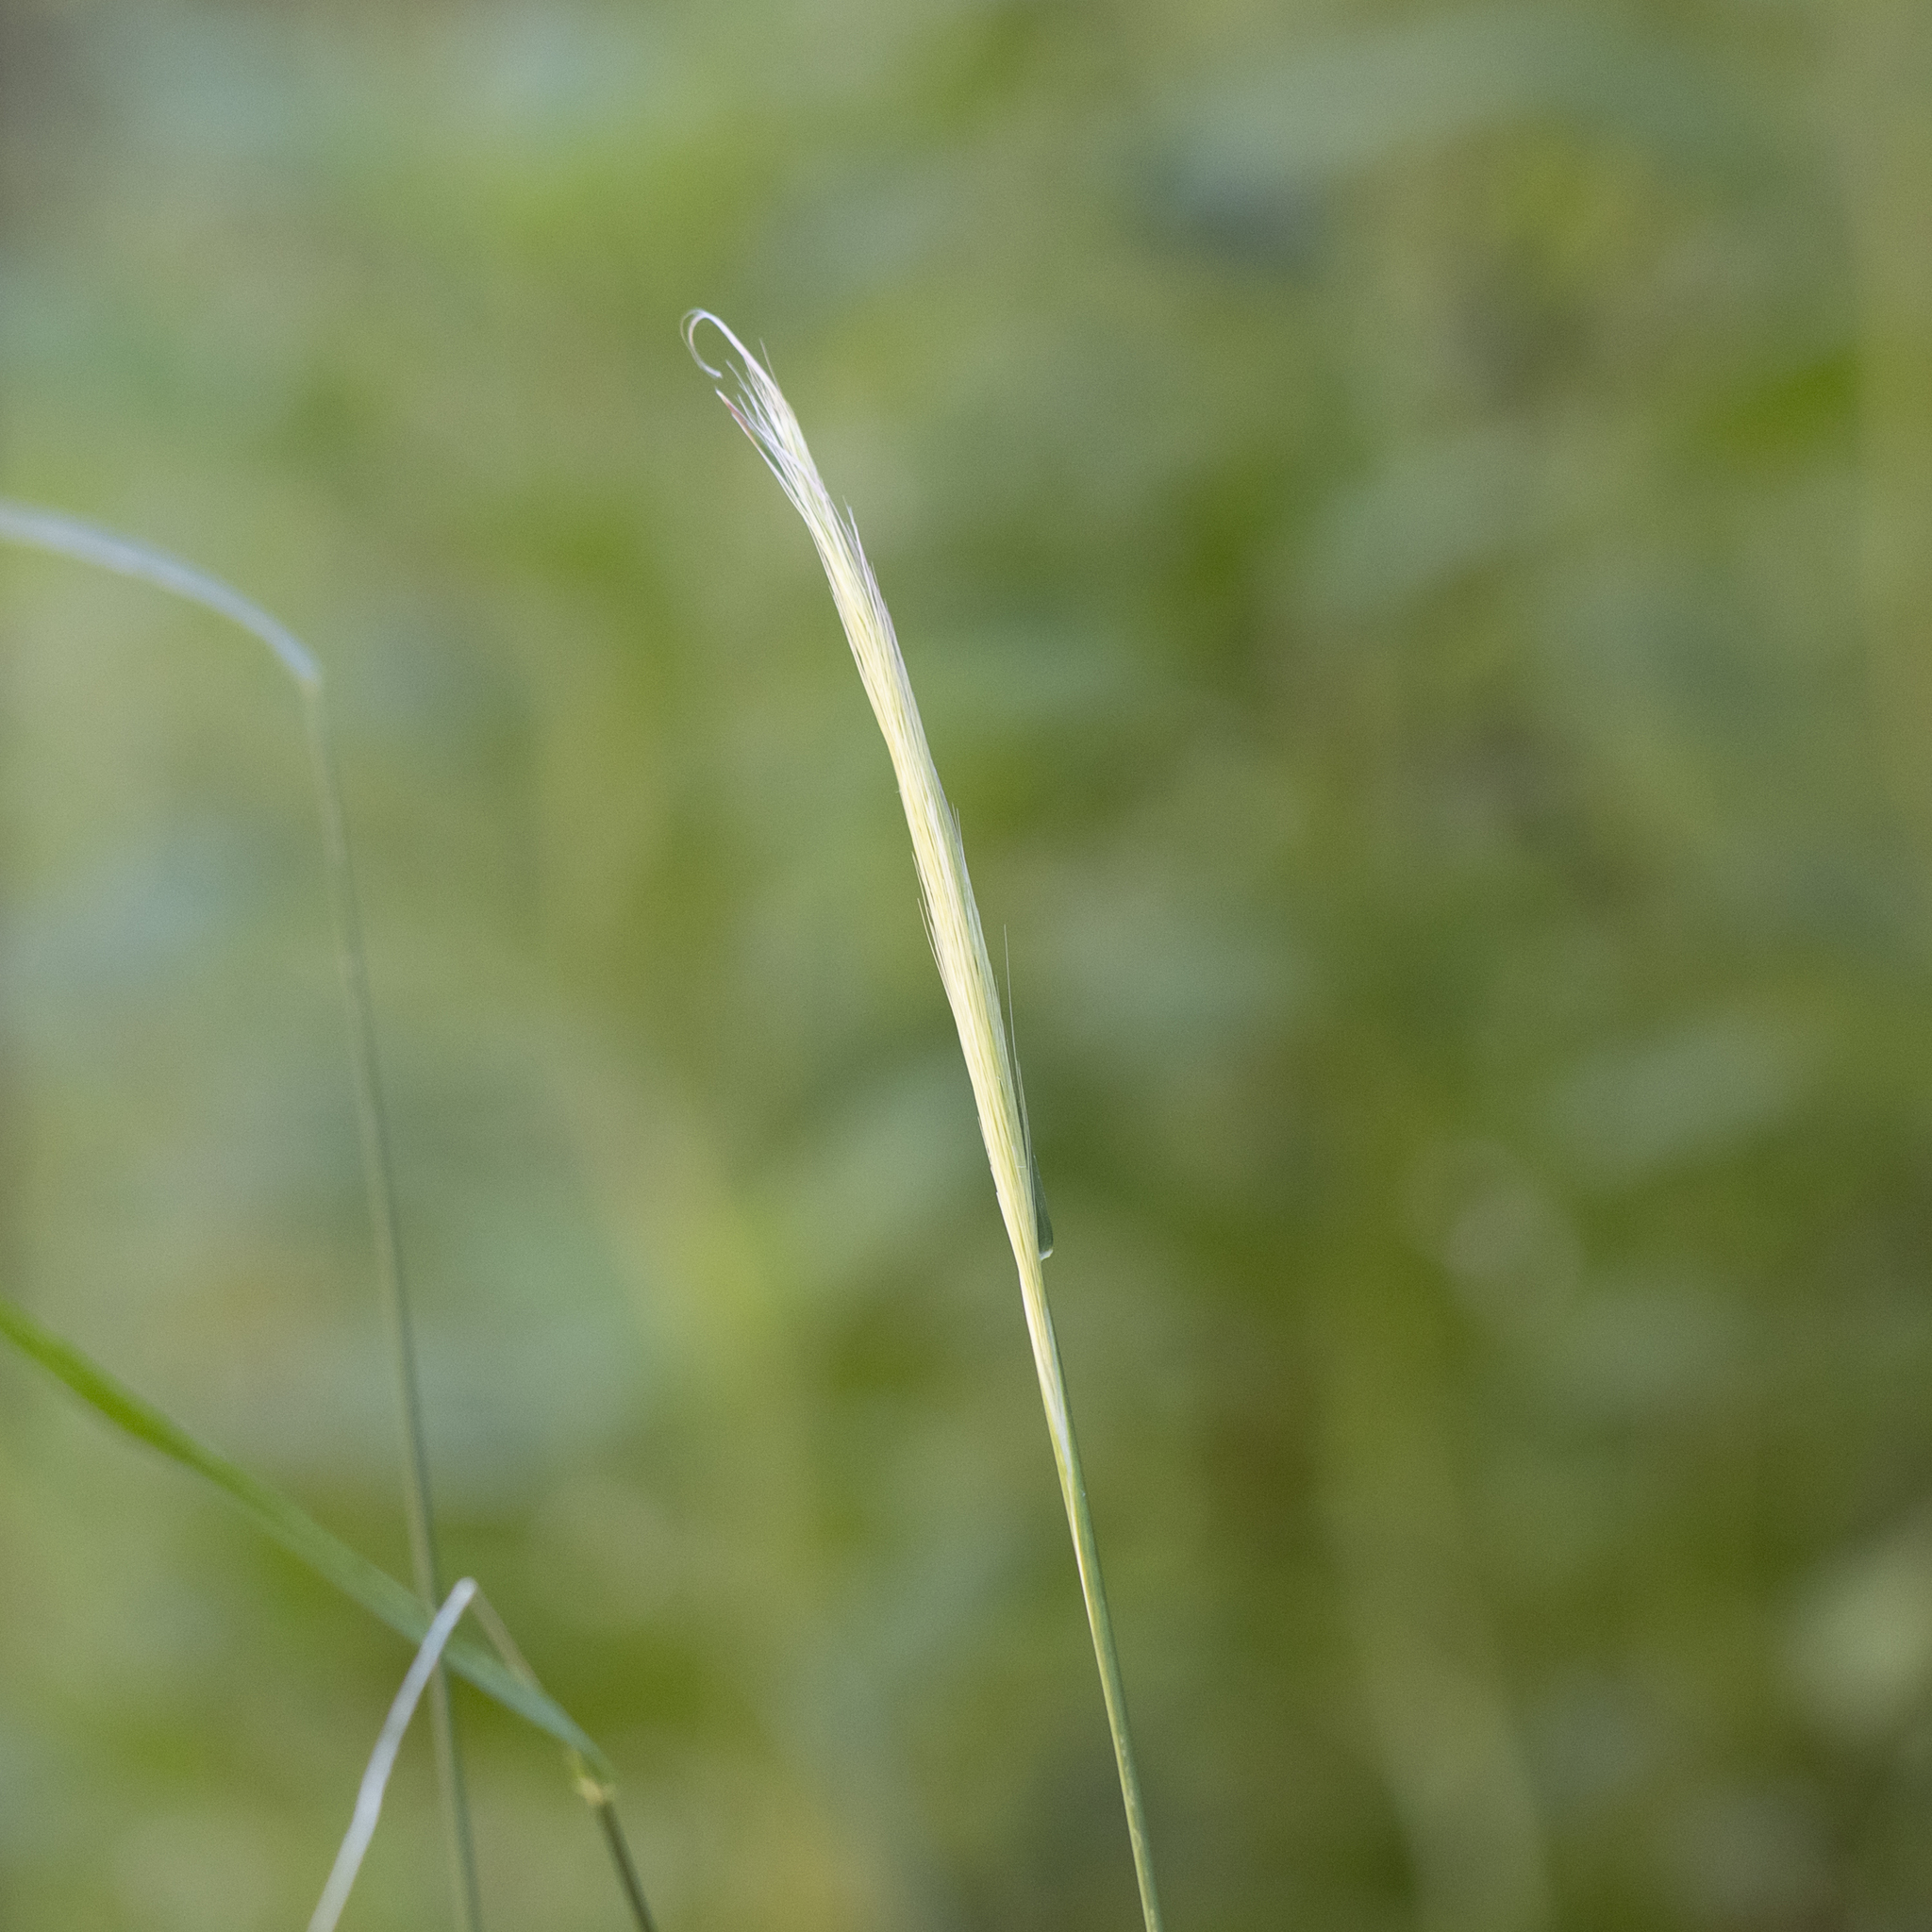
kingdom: Plantae
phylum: Tracheophyta
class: Liliopsida
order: Poales
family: Poaceae
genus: Dichelachne
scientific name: Dichelachne crinita
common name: Clovenfoot plumegrass
